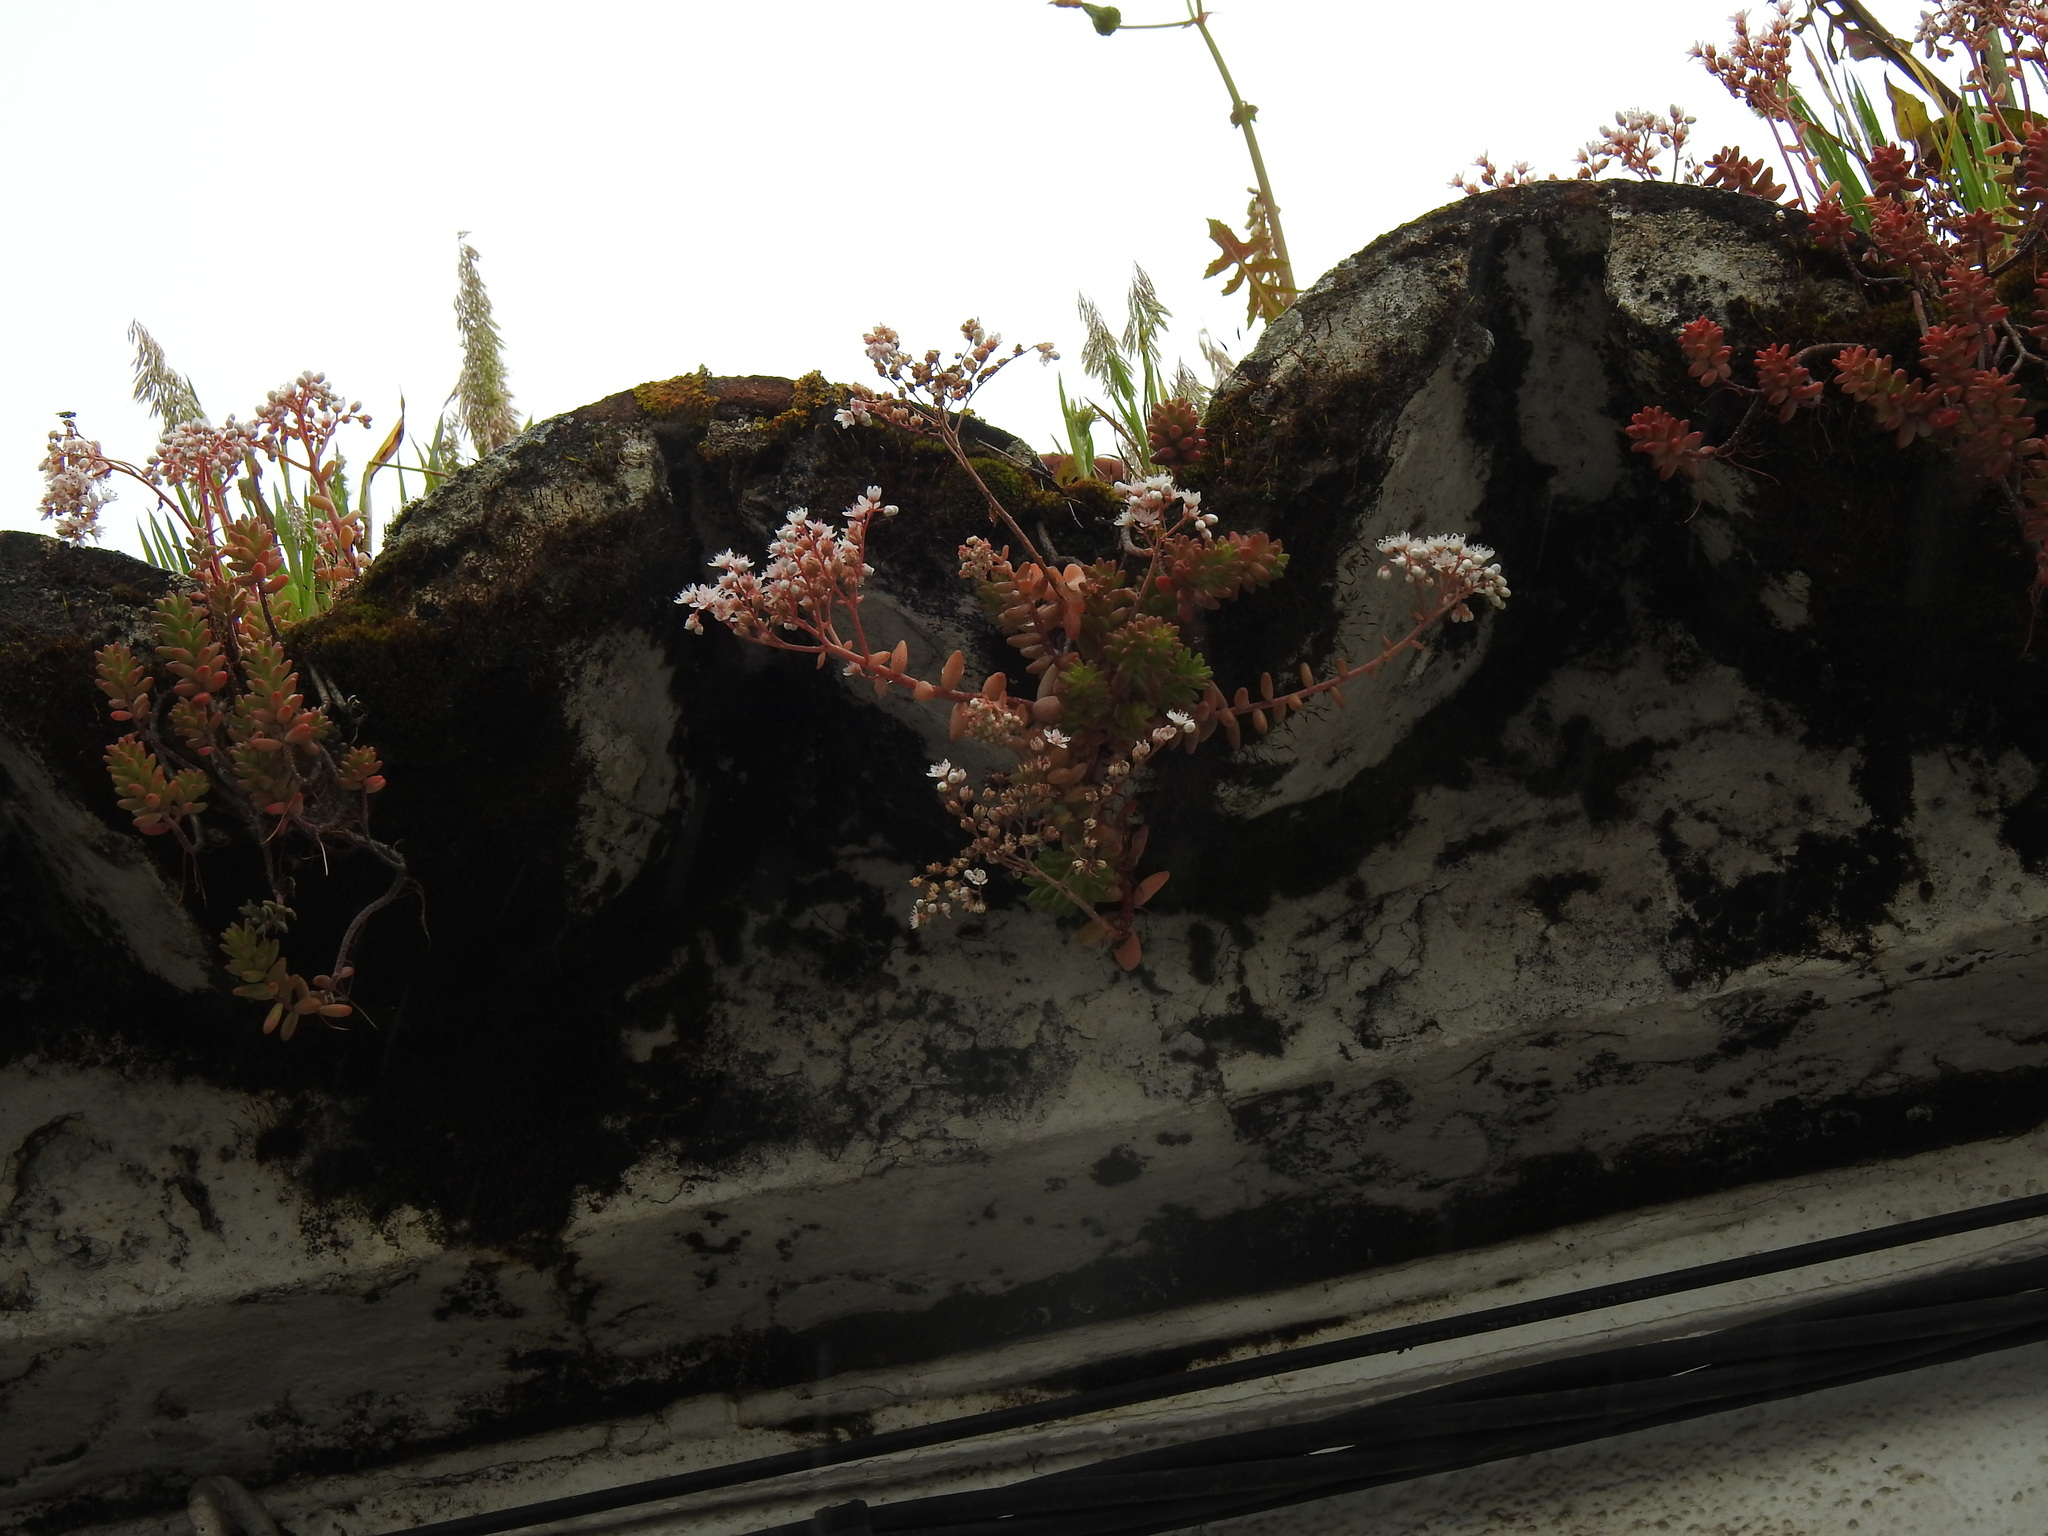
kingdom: Plantae
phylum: Tracheophyta
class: Magnoliopsida
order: Saxifragales
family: Crassulaceae
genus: Sedum
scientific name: Sedum album
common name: White stonecrop
